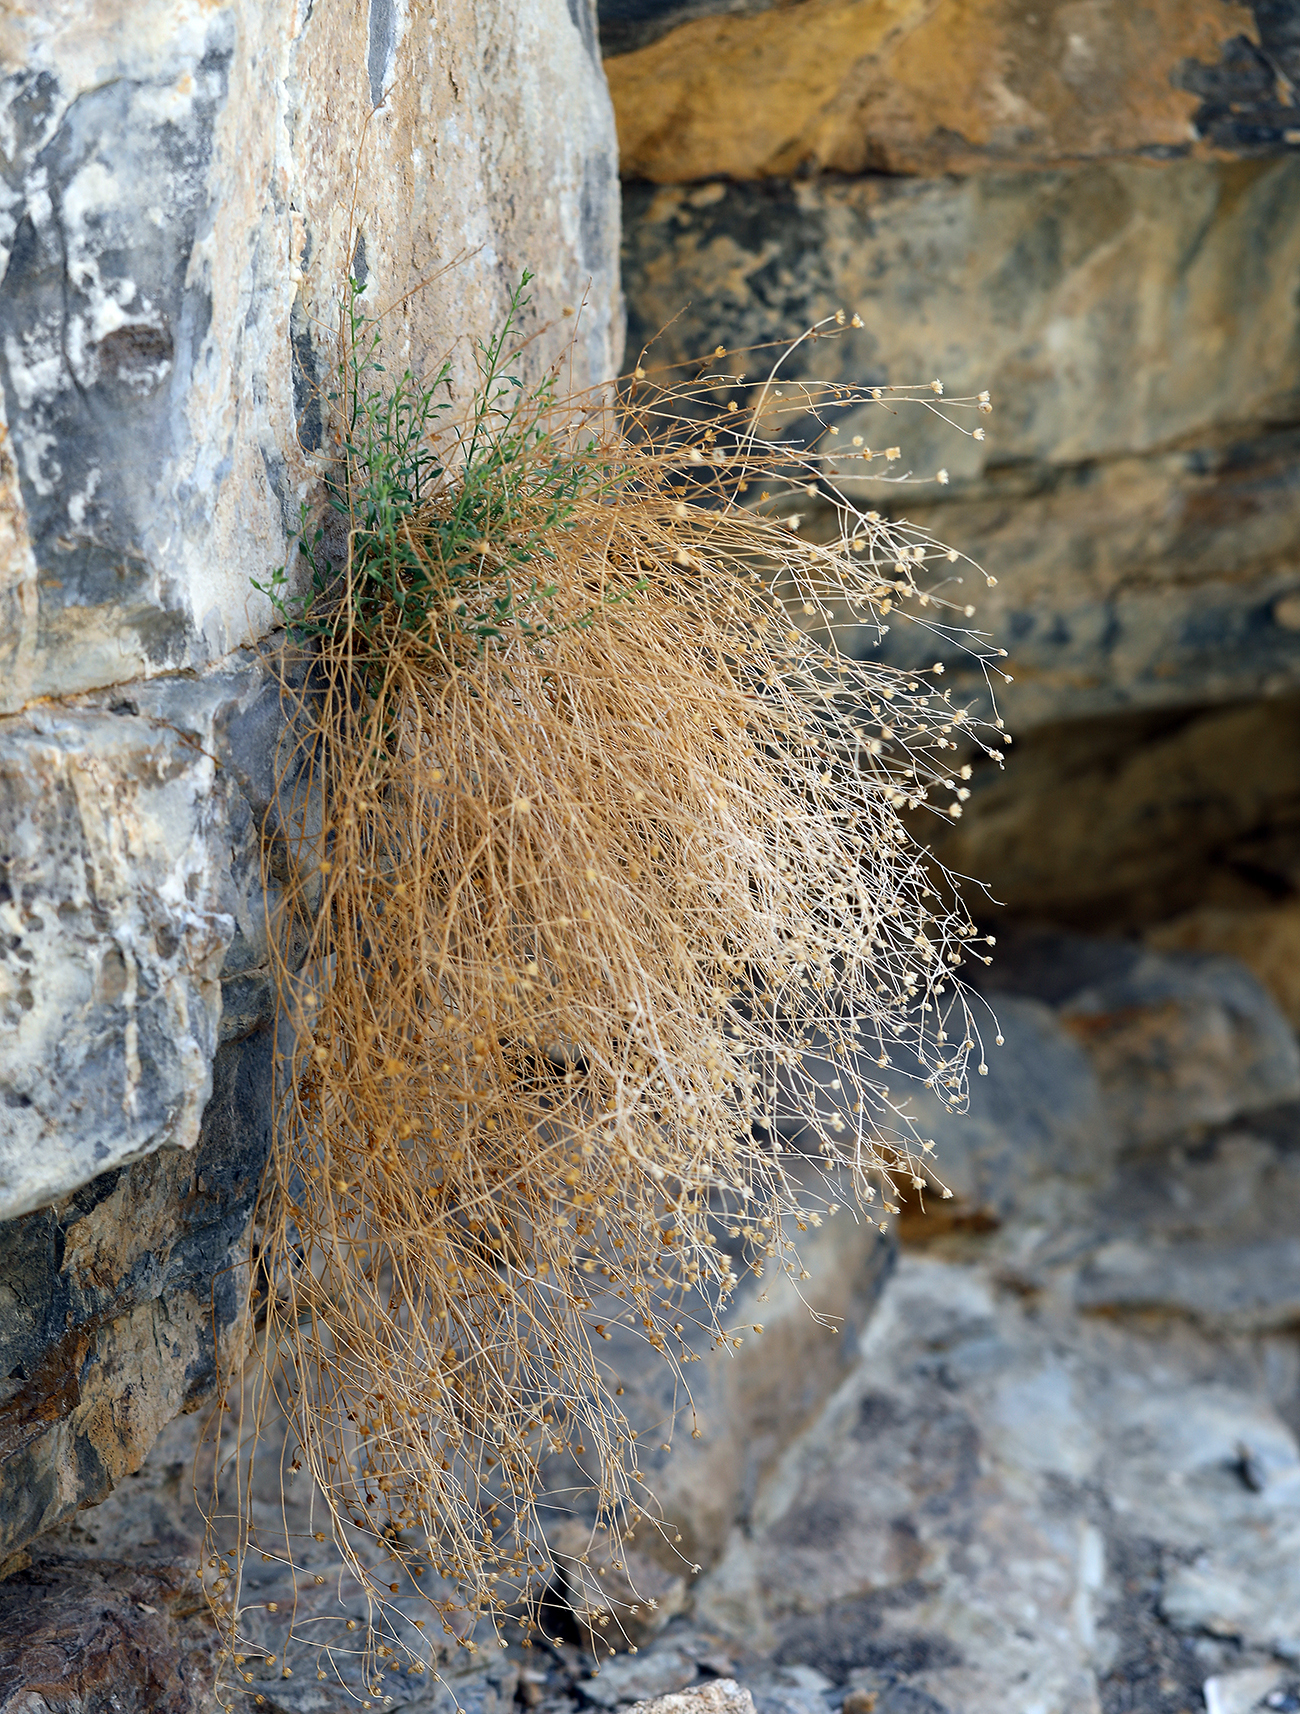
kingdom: Plantae
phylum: Tracheophyta
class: Magnoliopsida
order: Asterales
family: Asteraceae
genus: Laphamia
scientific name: Laphamia megalocephala
